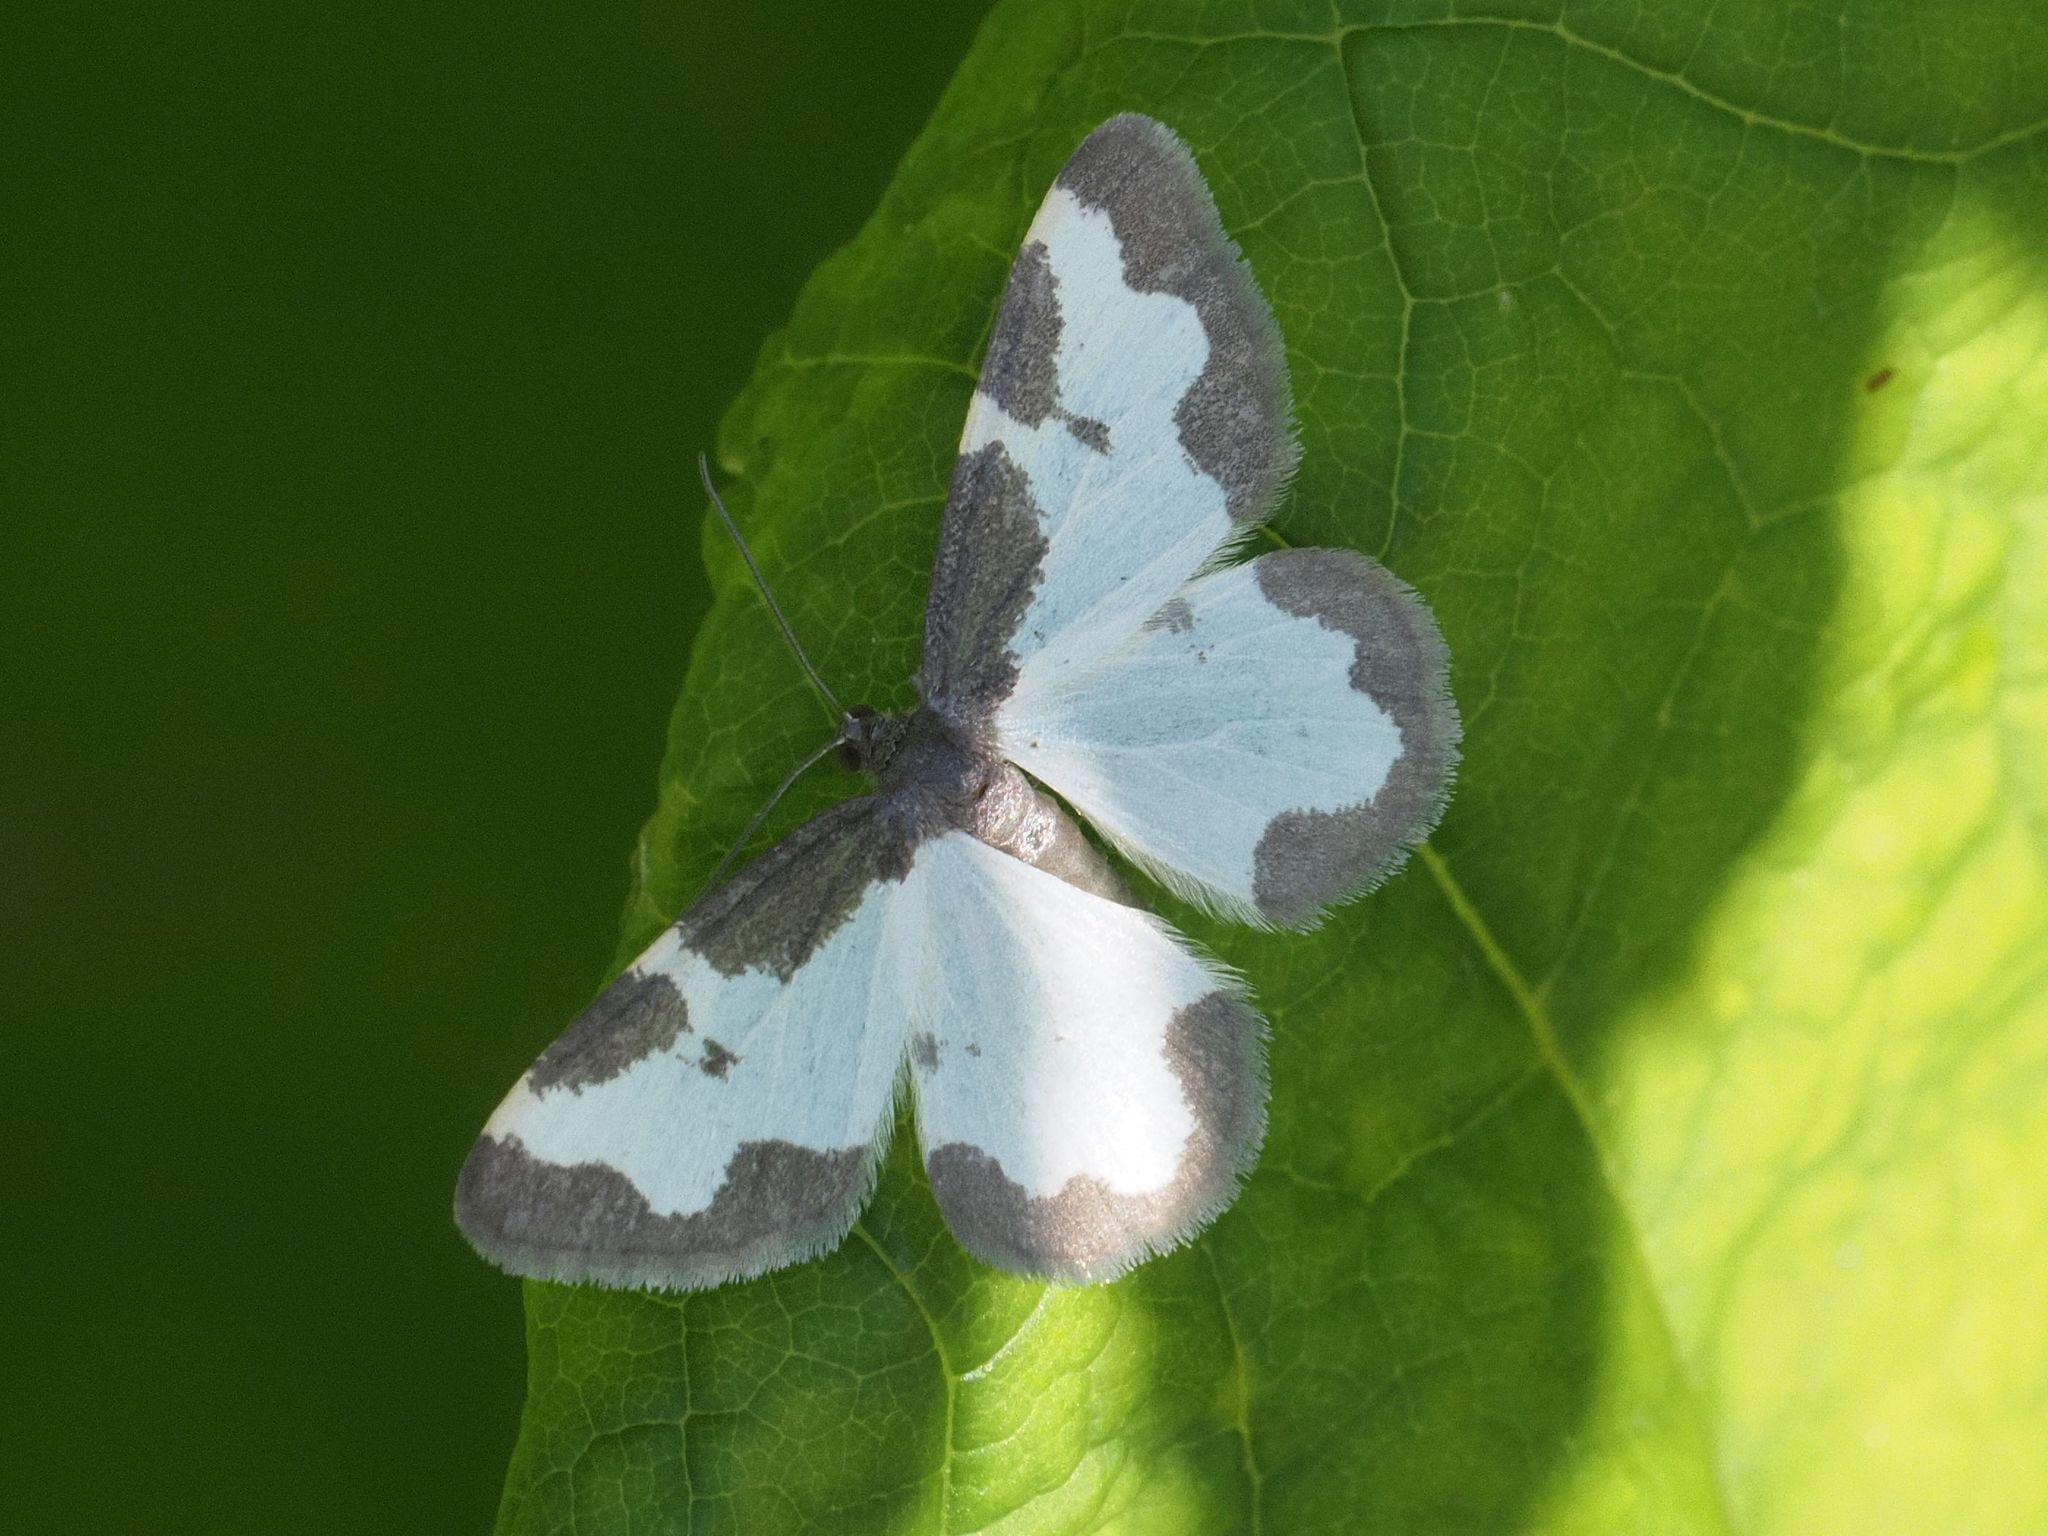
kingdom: Animalia
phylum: Arthropoda
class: Insecta
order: Lepidoptera
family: Geometridae
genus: Lomaspilis
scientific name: Lomaspilis marginata
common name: Clouded border
